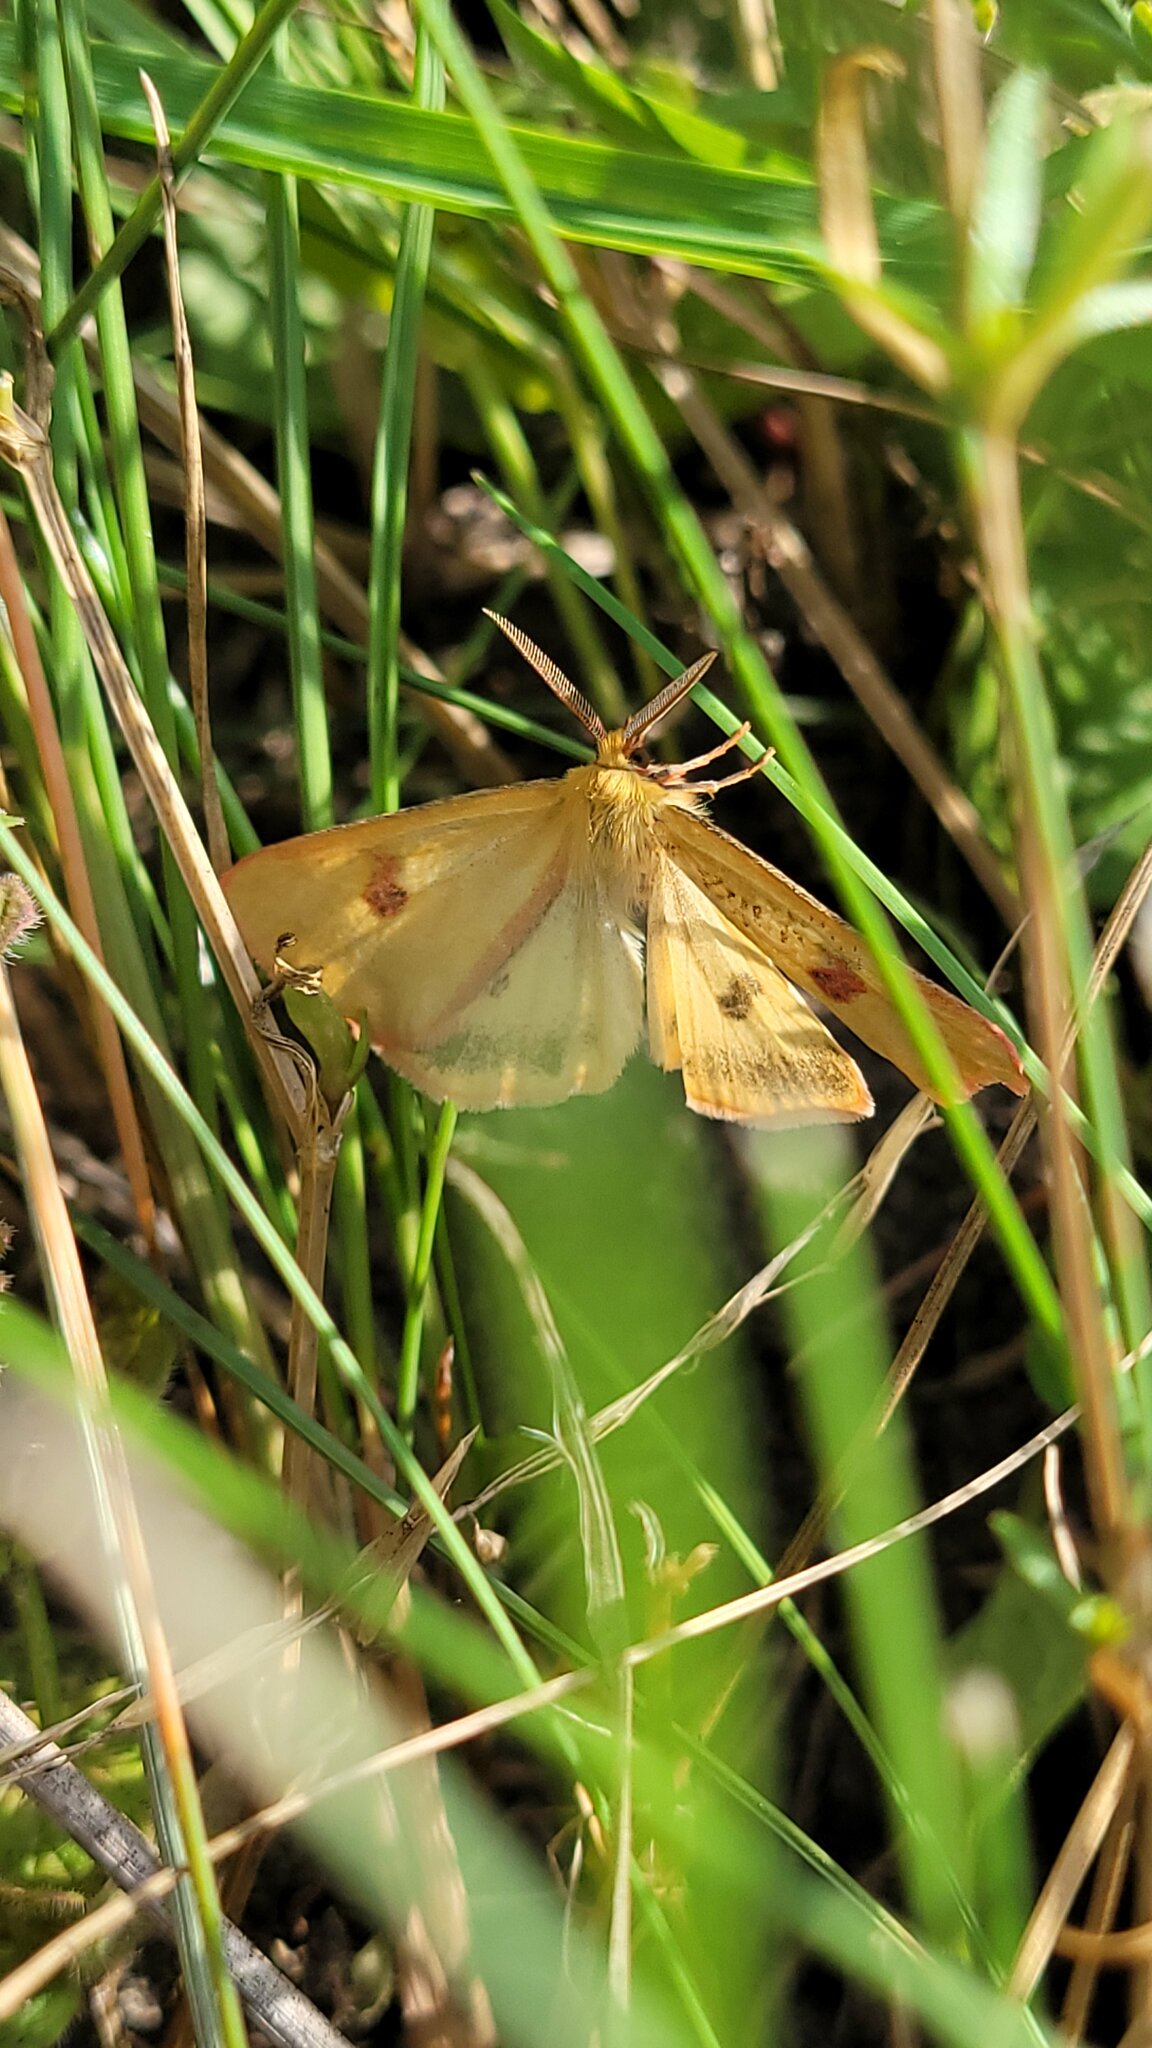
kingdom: Animalia
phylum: Arthropoda
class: Insecta
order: Lepidoptera
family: Erebidae
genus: Diacrisia
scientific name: Diacrisia sannio
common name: Clouded buff
